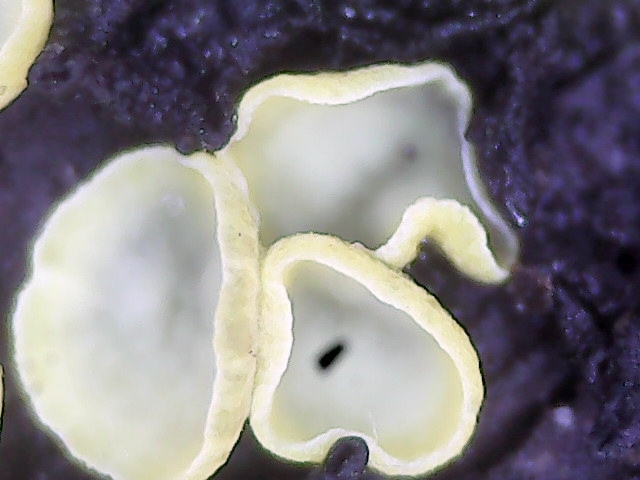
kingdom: Fungi
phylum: Ascomycota
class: Leotiomycetes
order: Helotiales
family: Chlorospleniaceae
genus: Chlorosplenium
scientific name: Chlorosplenium chlora
